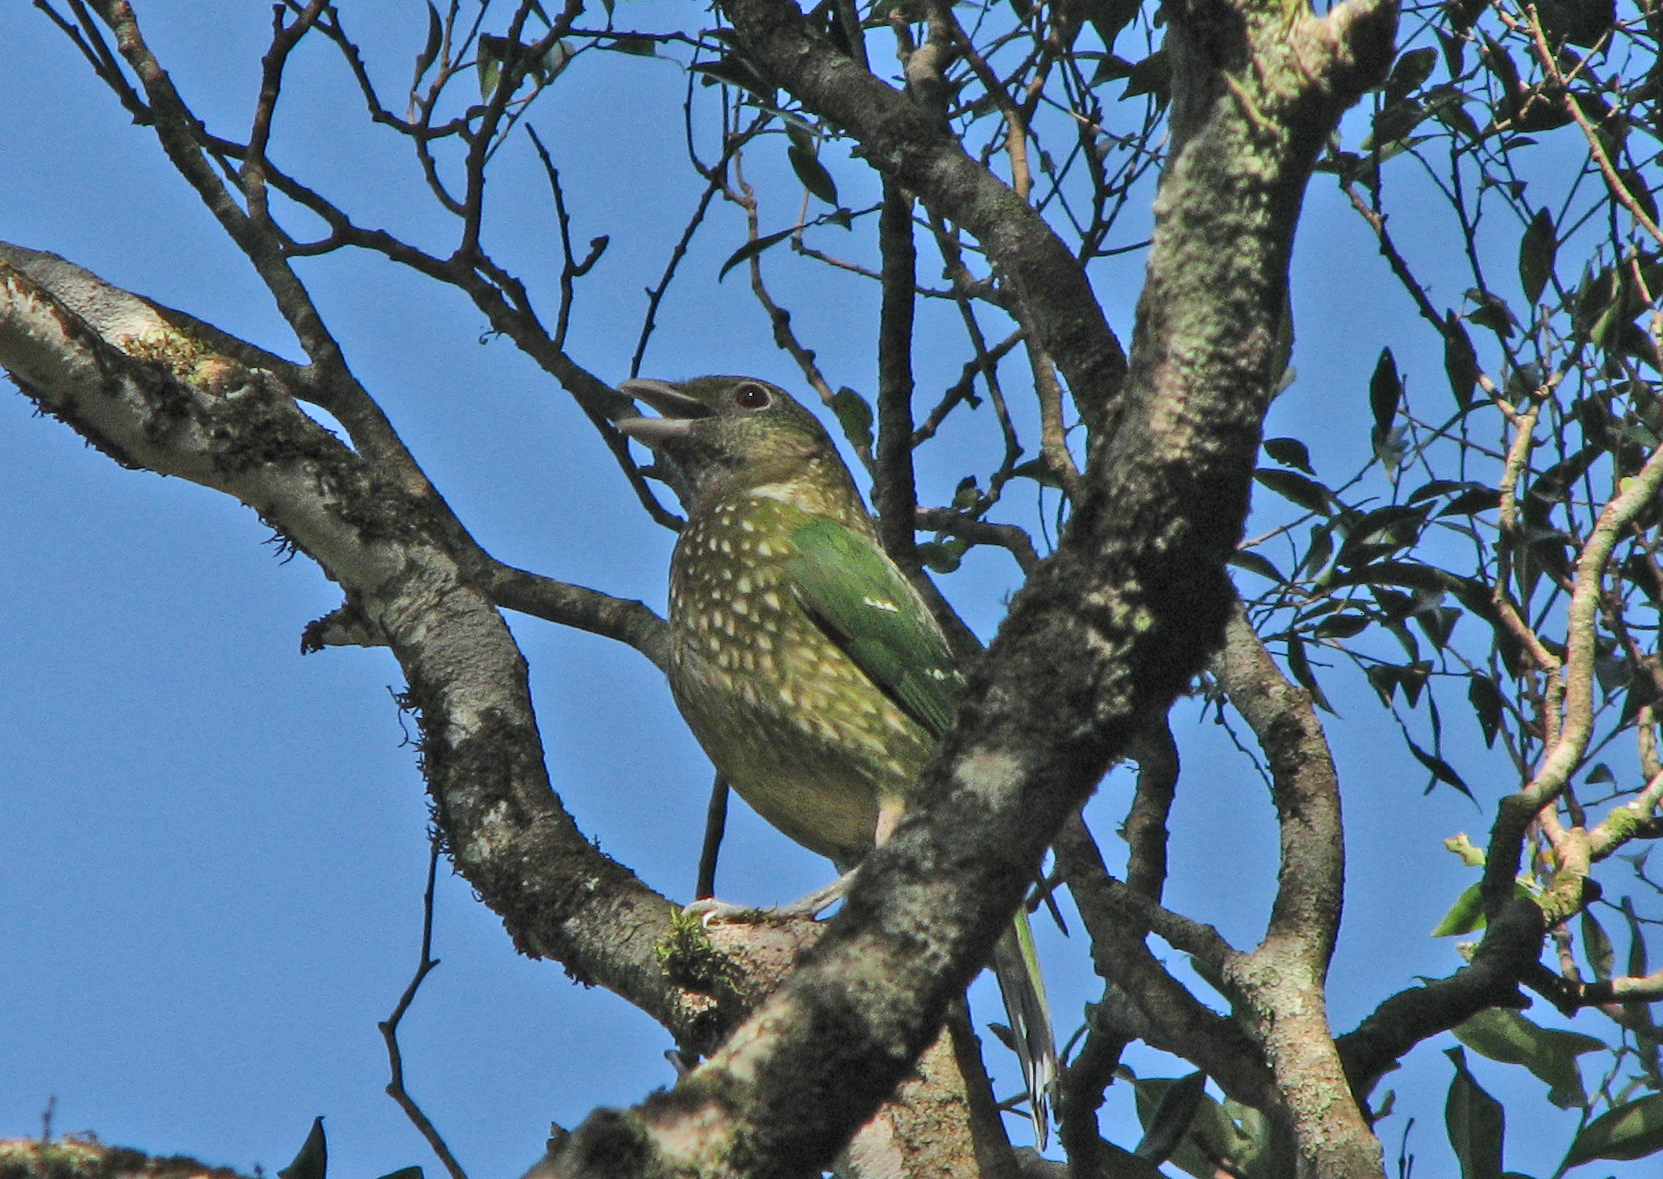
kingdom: Animalia
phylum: Chordata
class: Aves
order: Passeriformes
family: Ptilonorhynchidae
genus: Ailuroedus
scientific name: Ailuroedus crassirostris
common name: Green catbird
